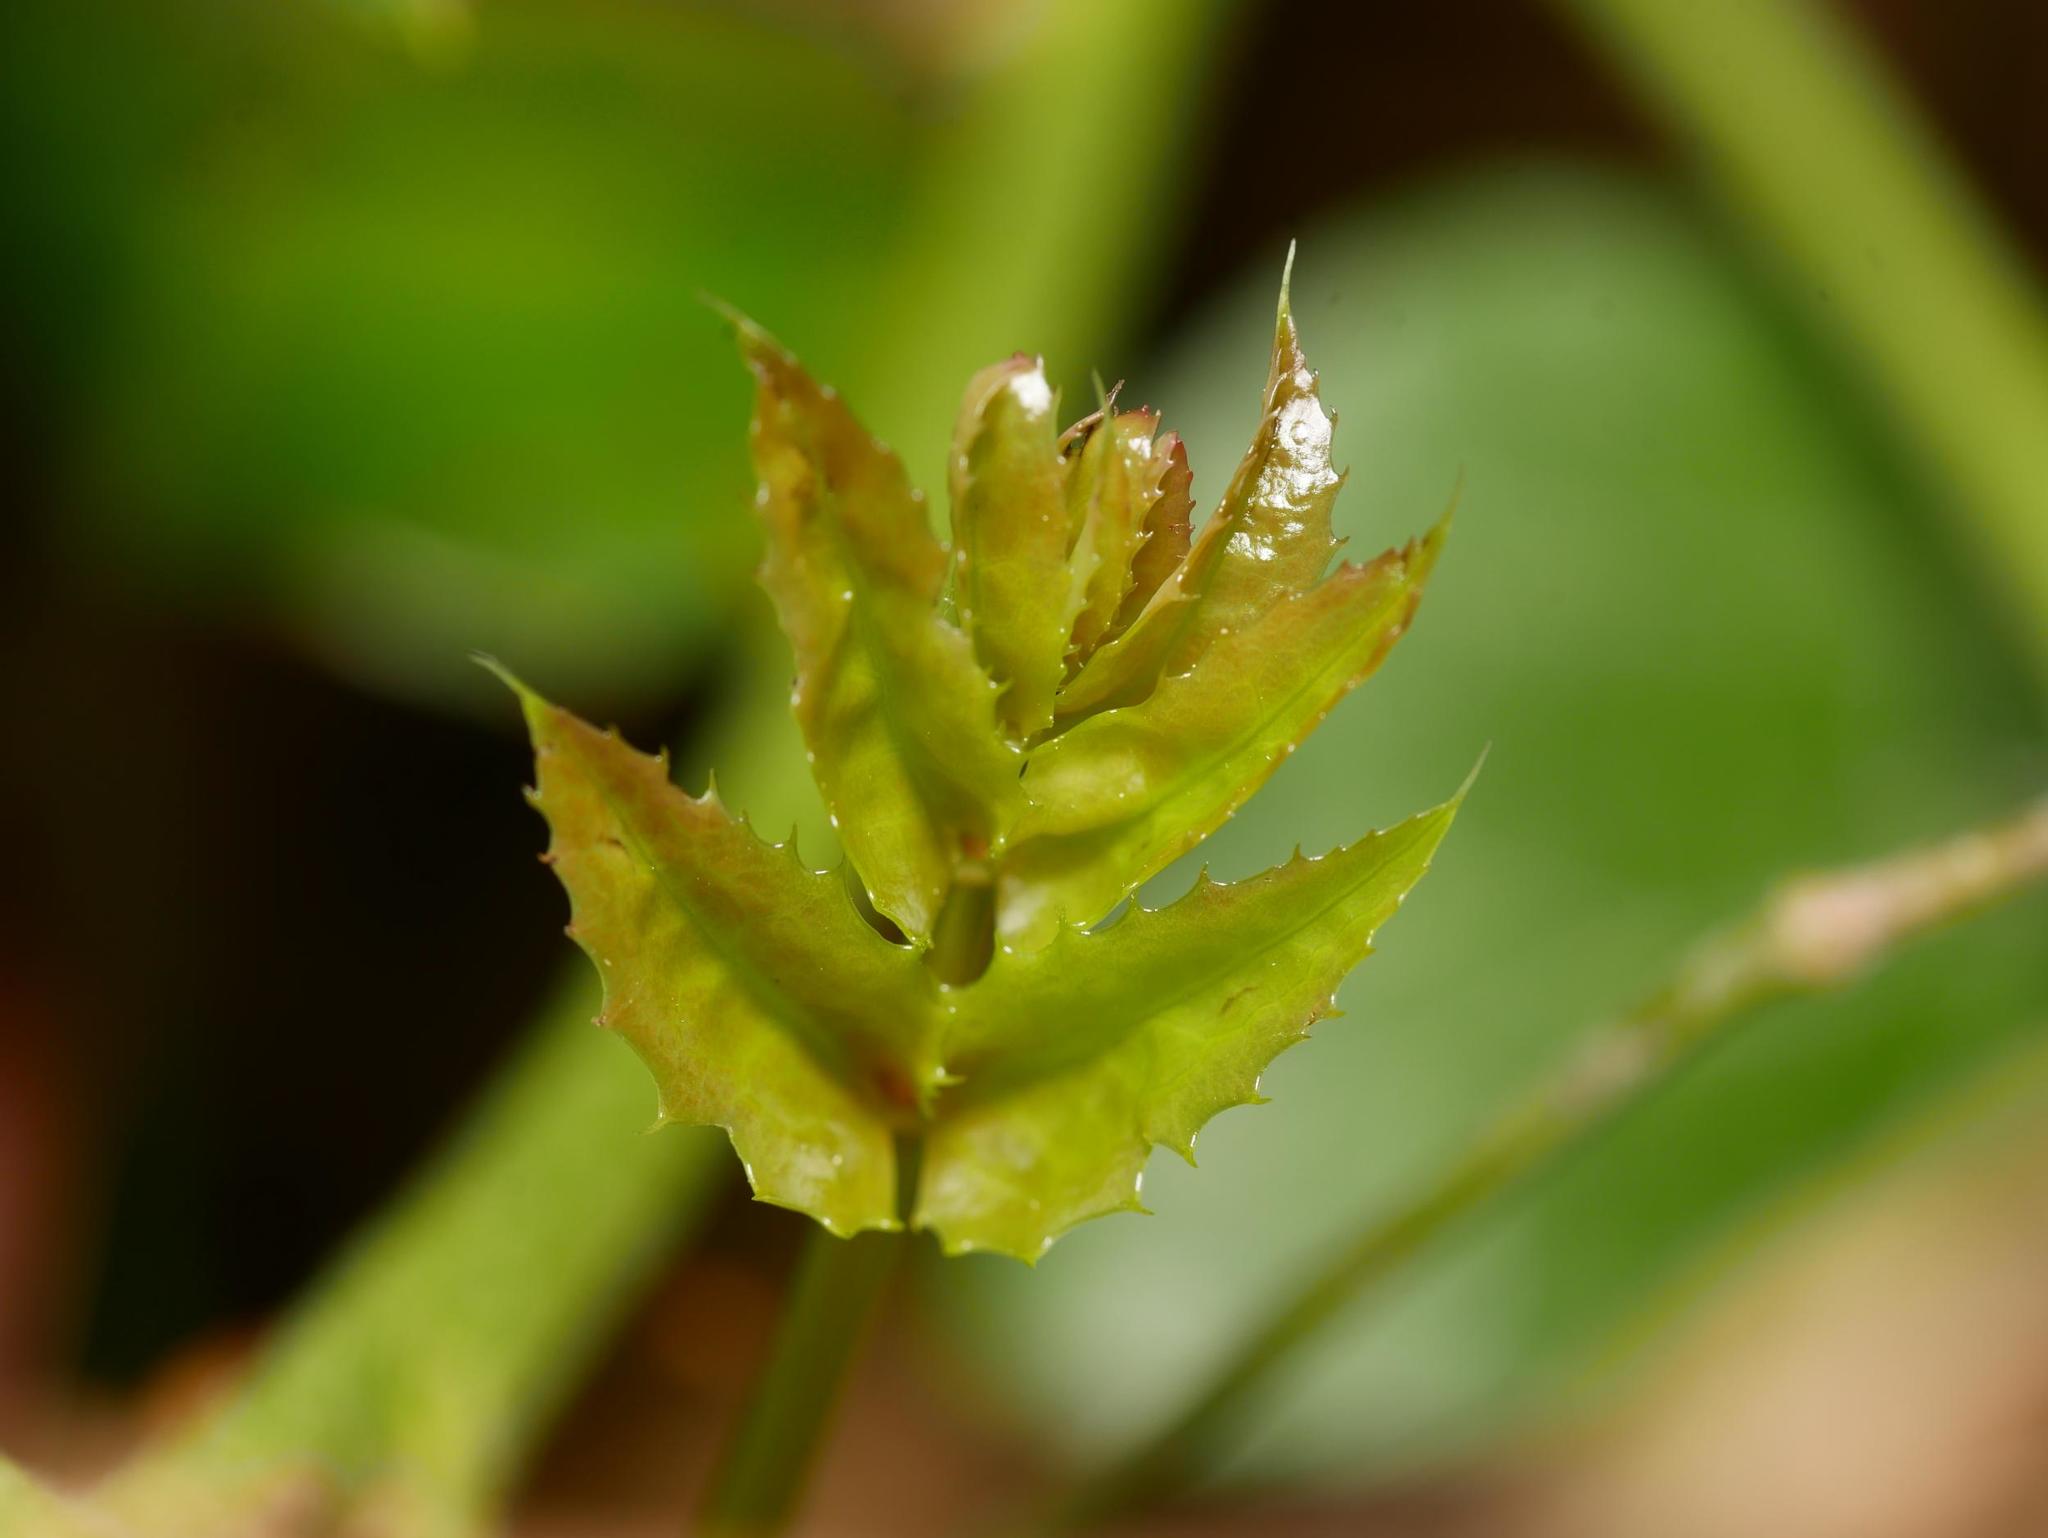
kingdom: Plantae
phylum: Tracheophyta
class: Magnoliopsida
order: Ranunculales
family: Berberidaceae
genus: Mahonia
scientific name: Mahonia aquifolium
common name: Oregon-grape
